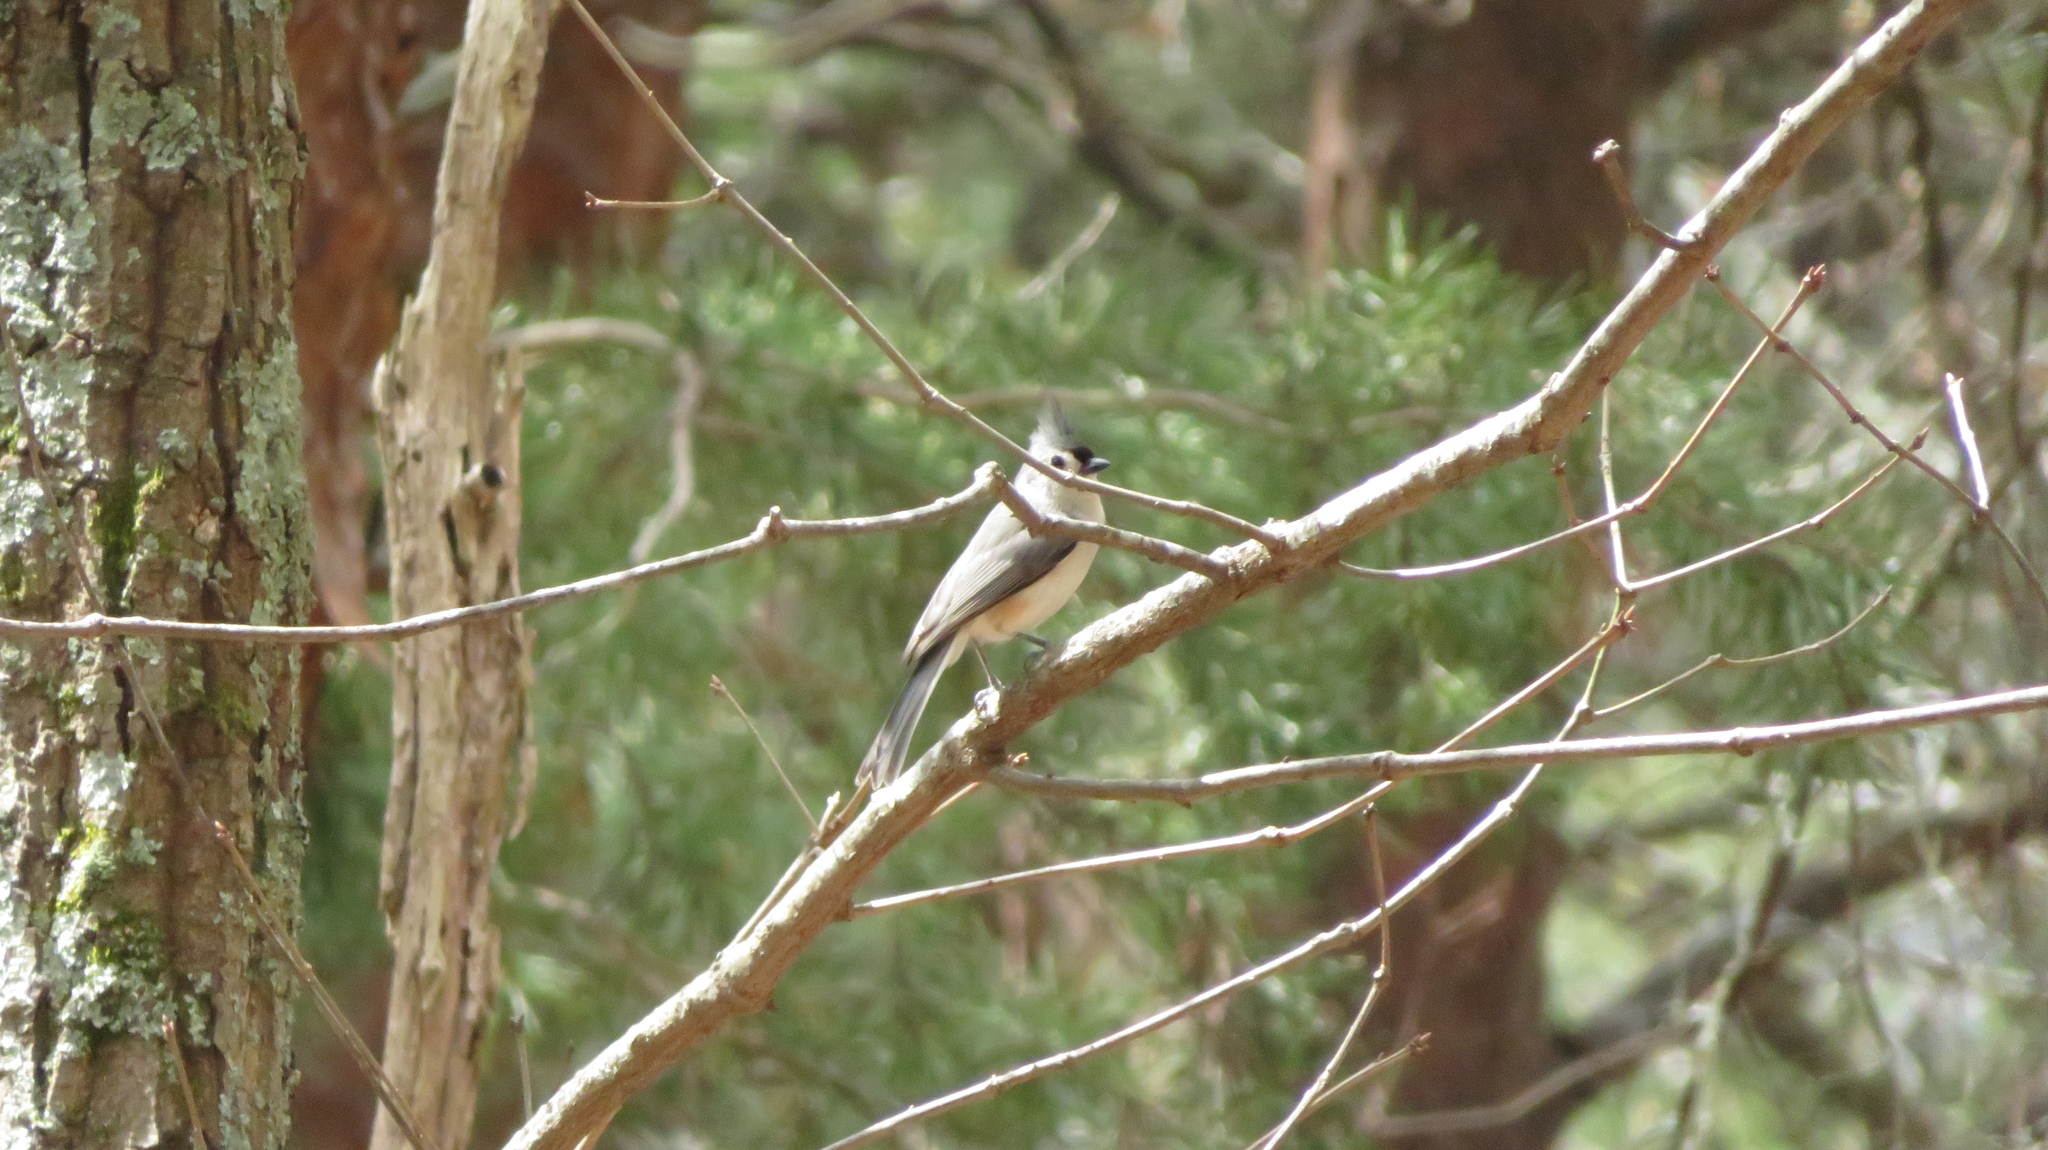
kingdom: Animalia
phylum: Chordata
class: Aves
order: Passeriformes
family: Paridae
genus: Baeolophus
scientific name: Baeolophus bicolor
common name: Tufted titmouse
